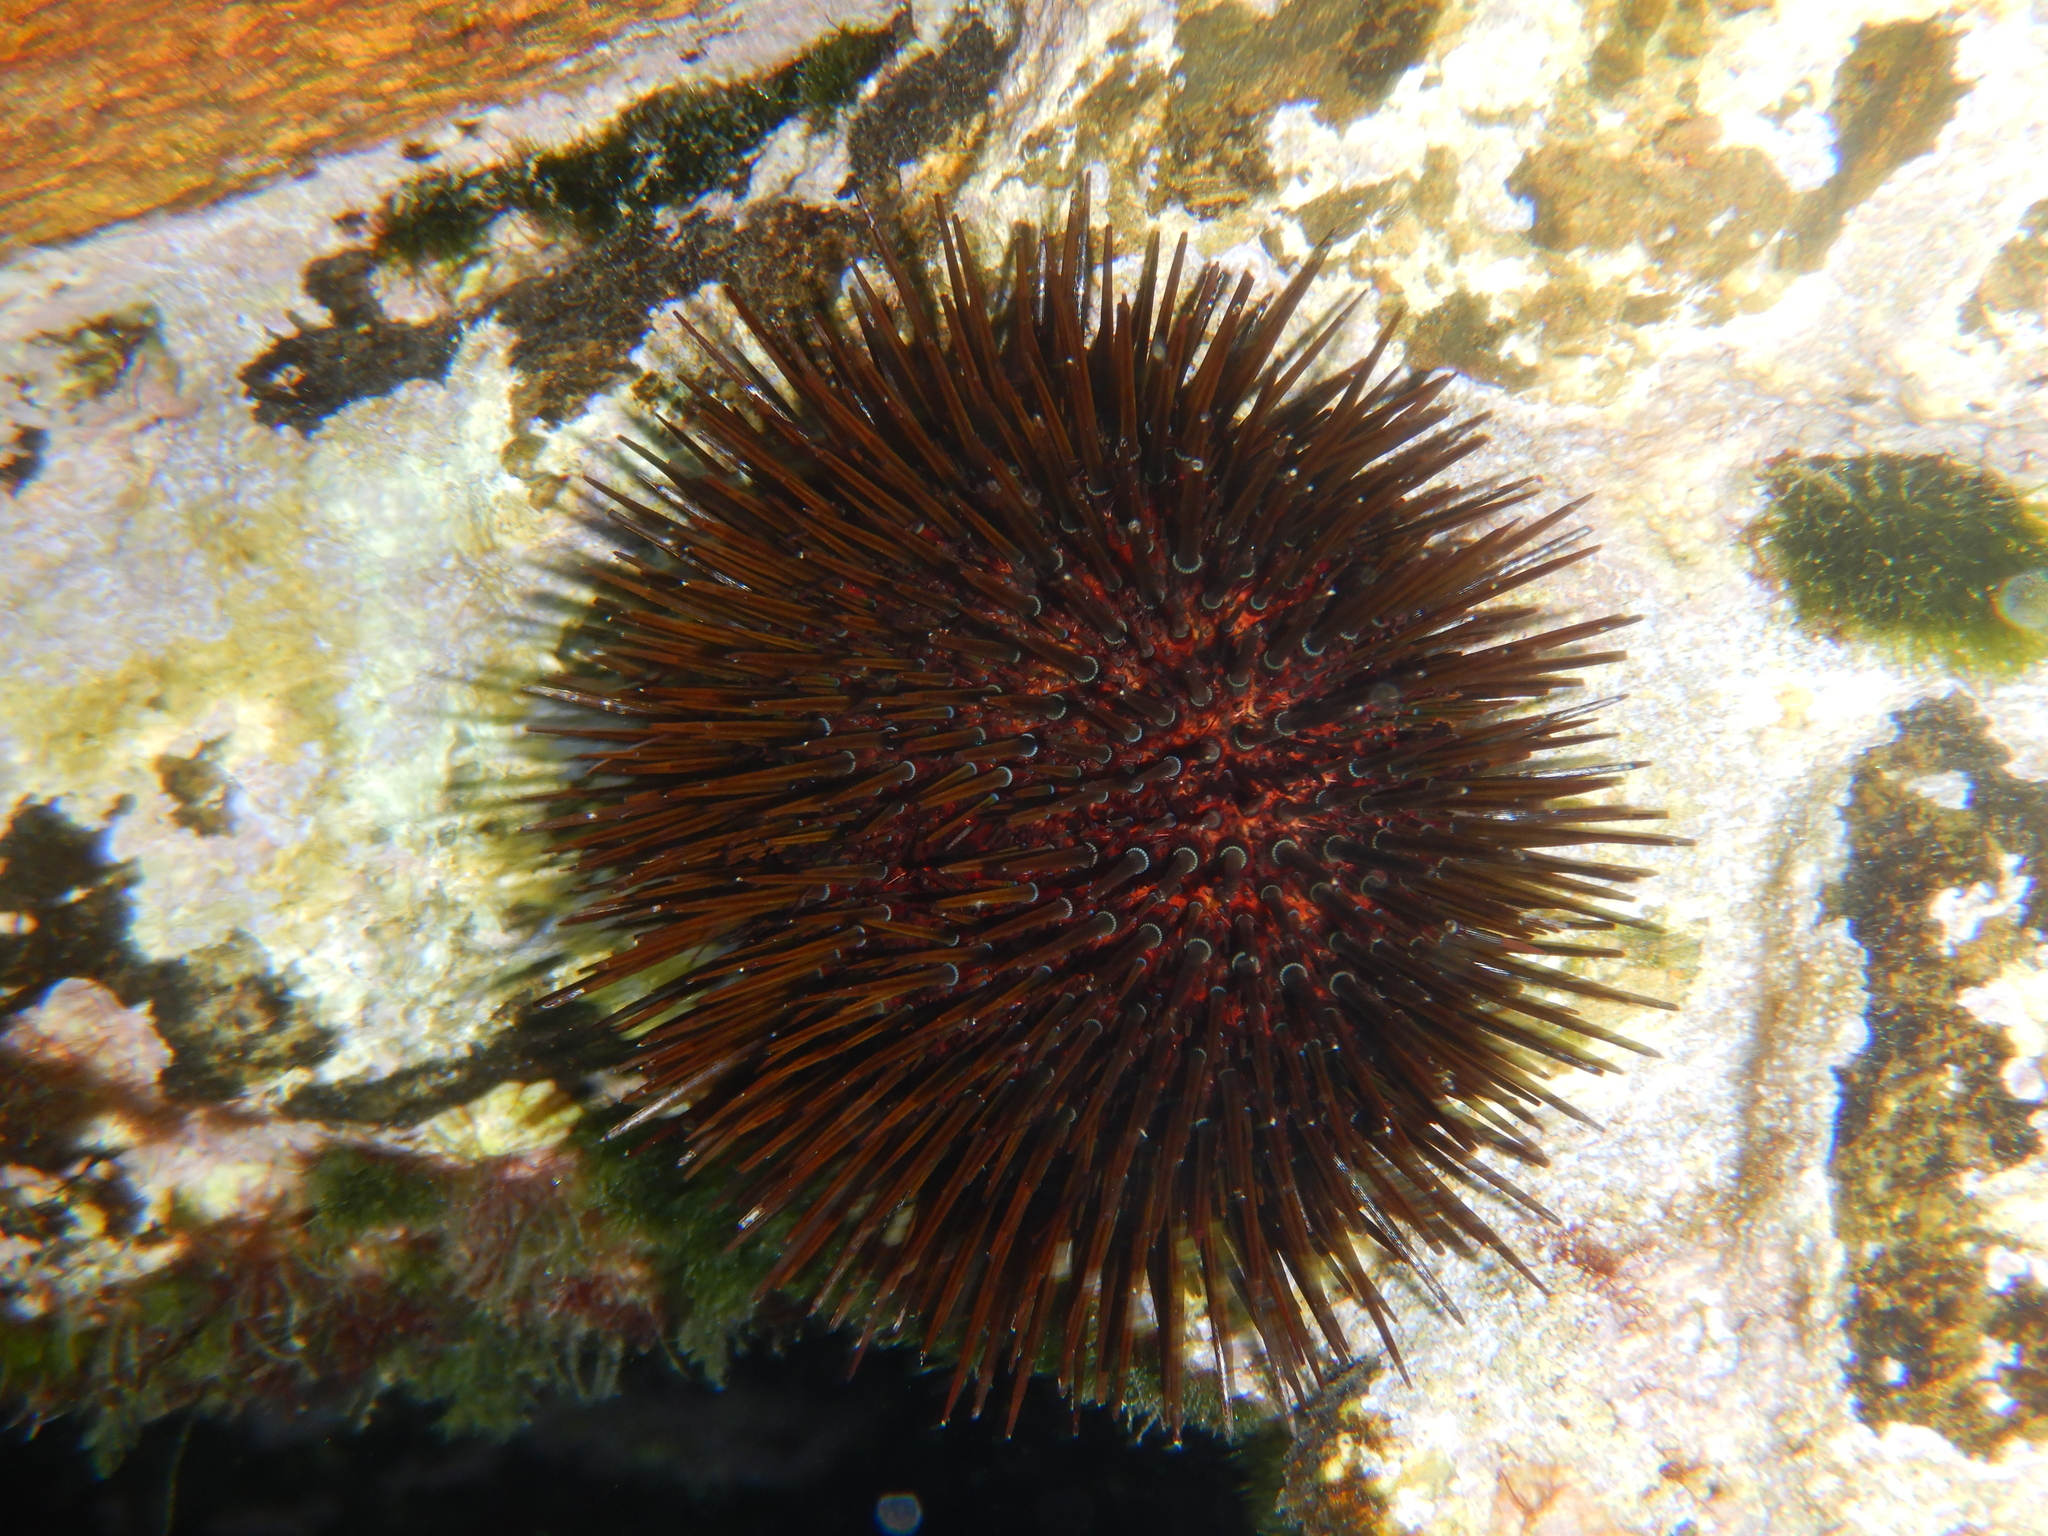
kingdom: Animalia
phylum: Echinodermata
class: Echinoidea
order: Camarodonta
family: Parechinidae
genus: Paracentrotus
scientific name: Paracentrotus lividus
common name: Purple sea urchin
